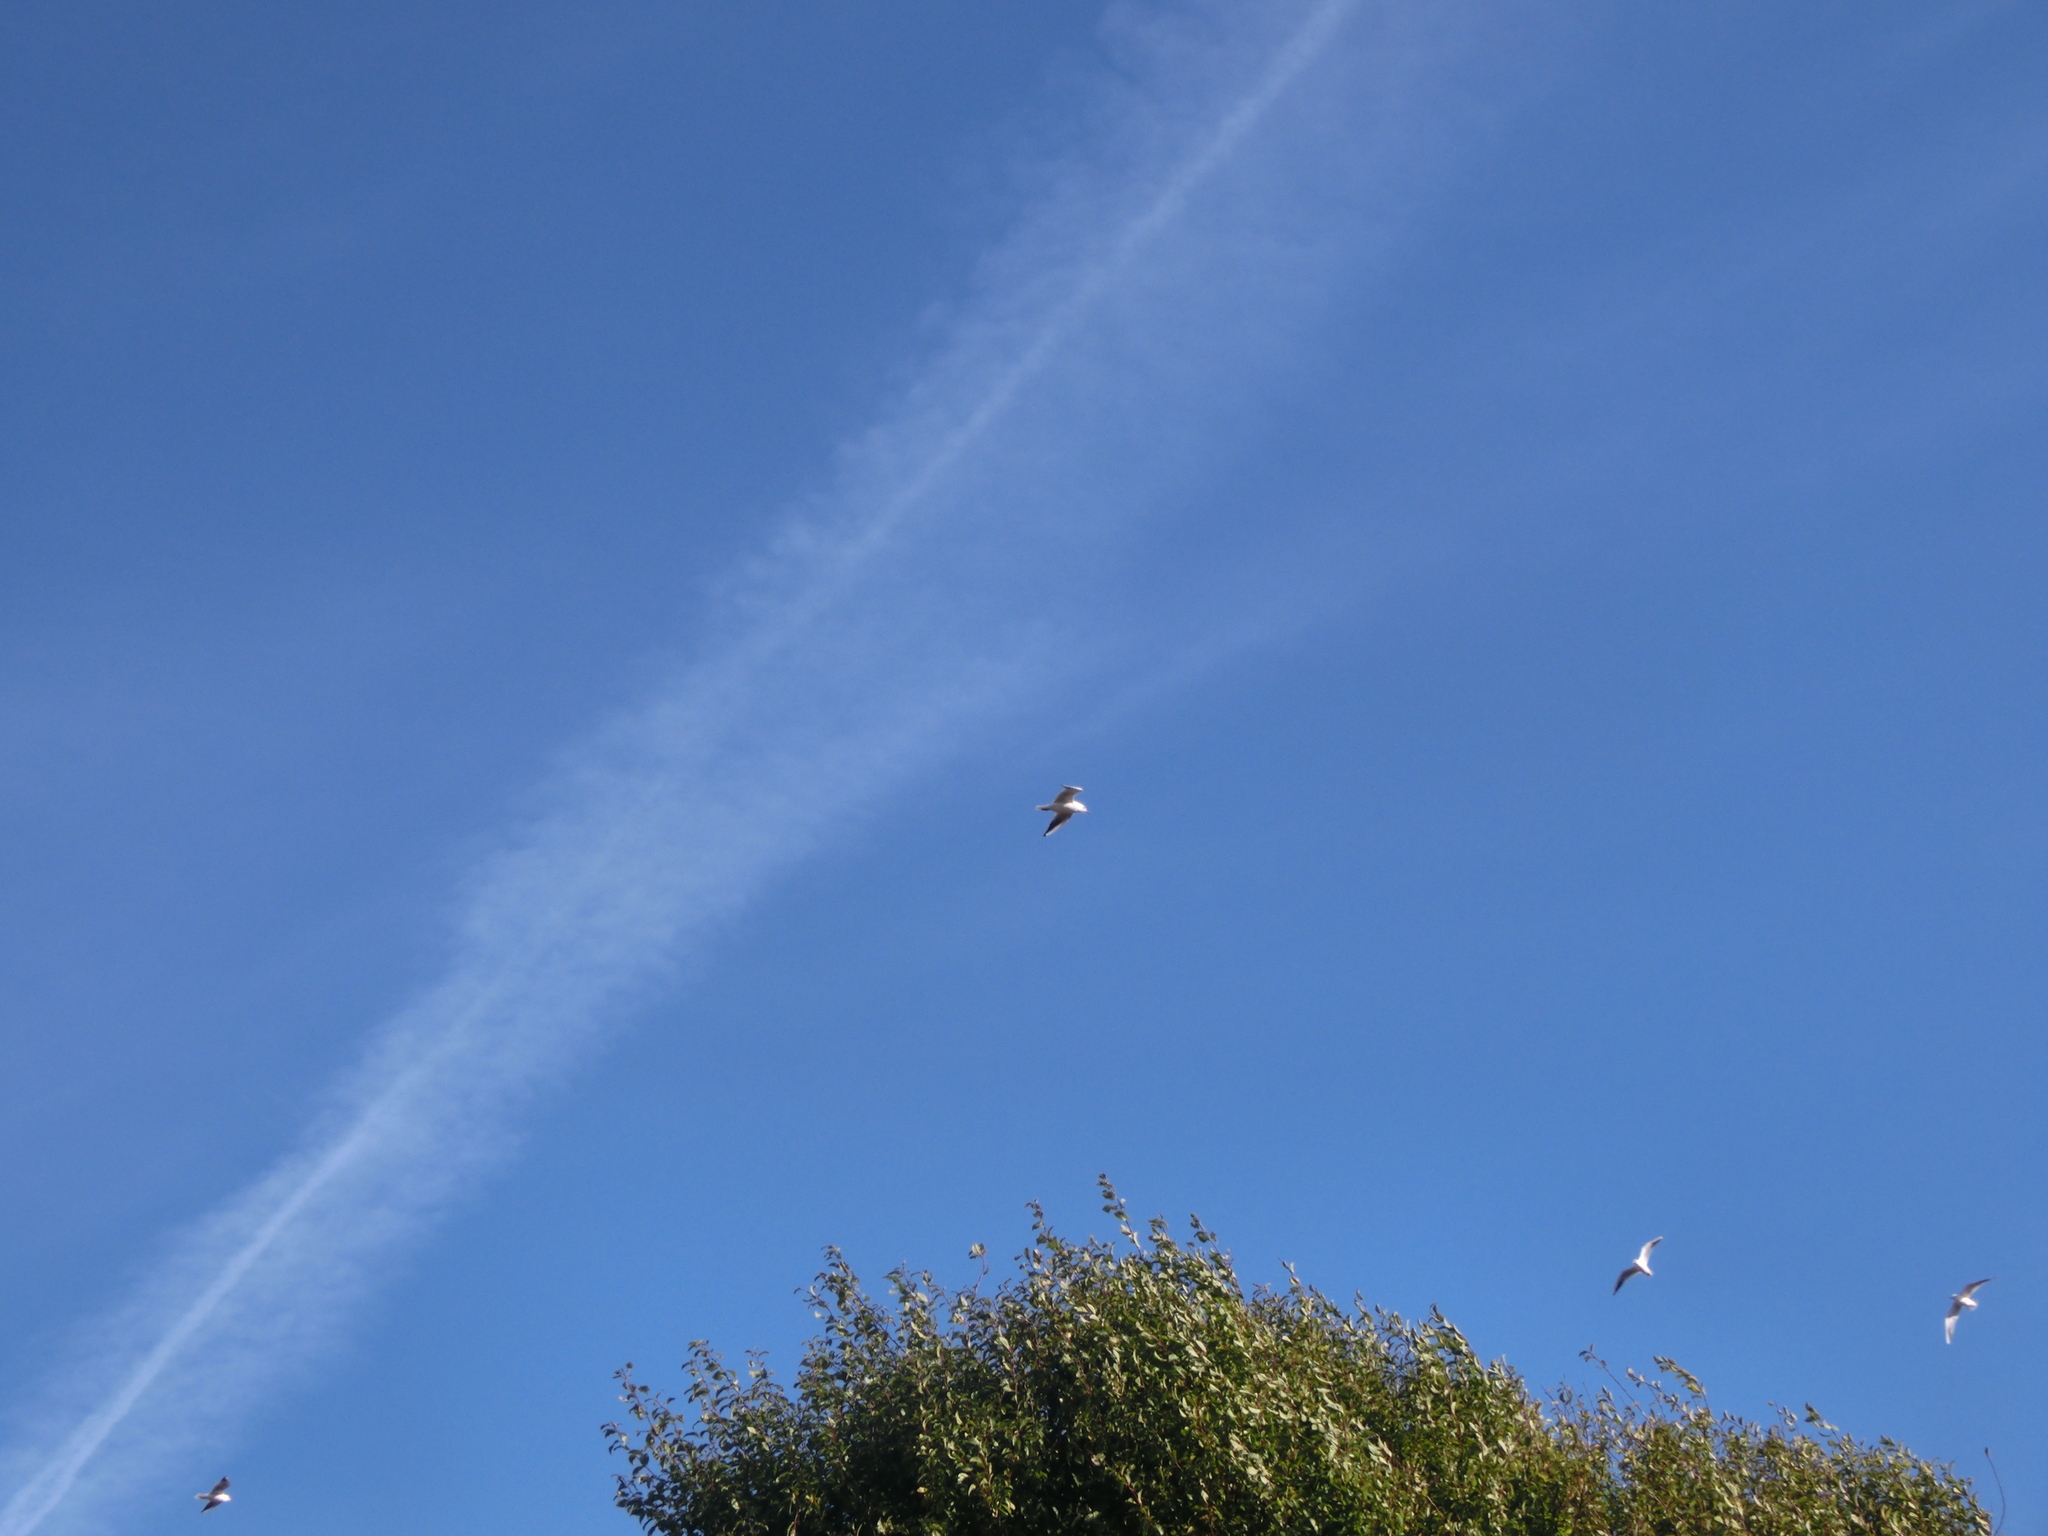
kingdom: Animalia
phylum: Chordata
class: Aves
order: Charadriiformes
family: Laridae
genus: Chroicocephalus
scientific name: Chroicocephalus ridibundus
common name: Black-headed gull
